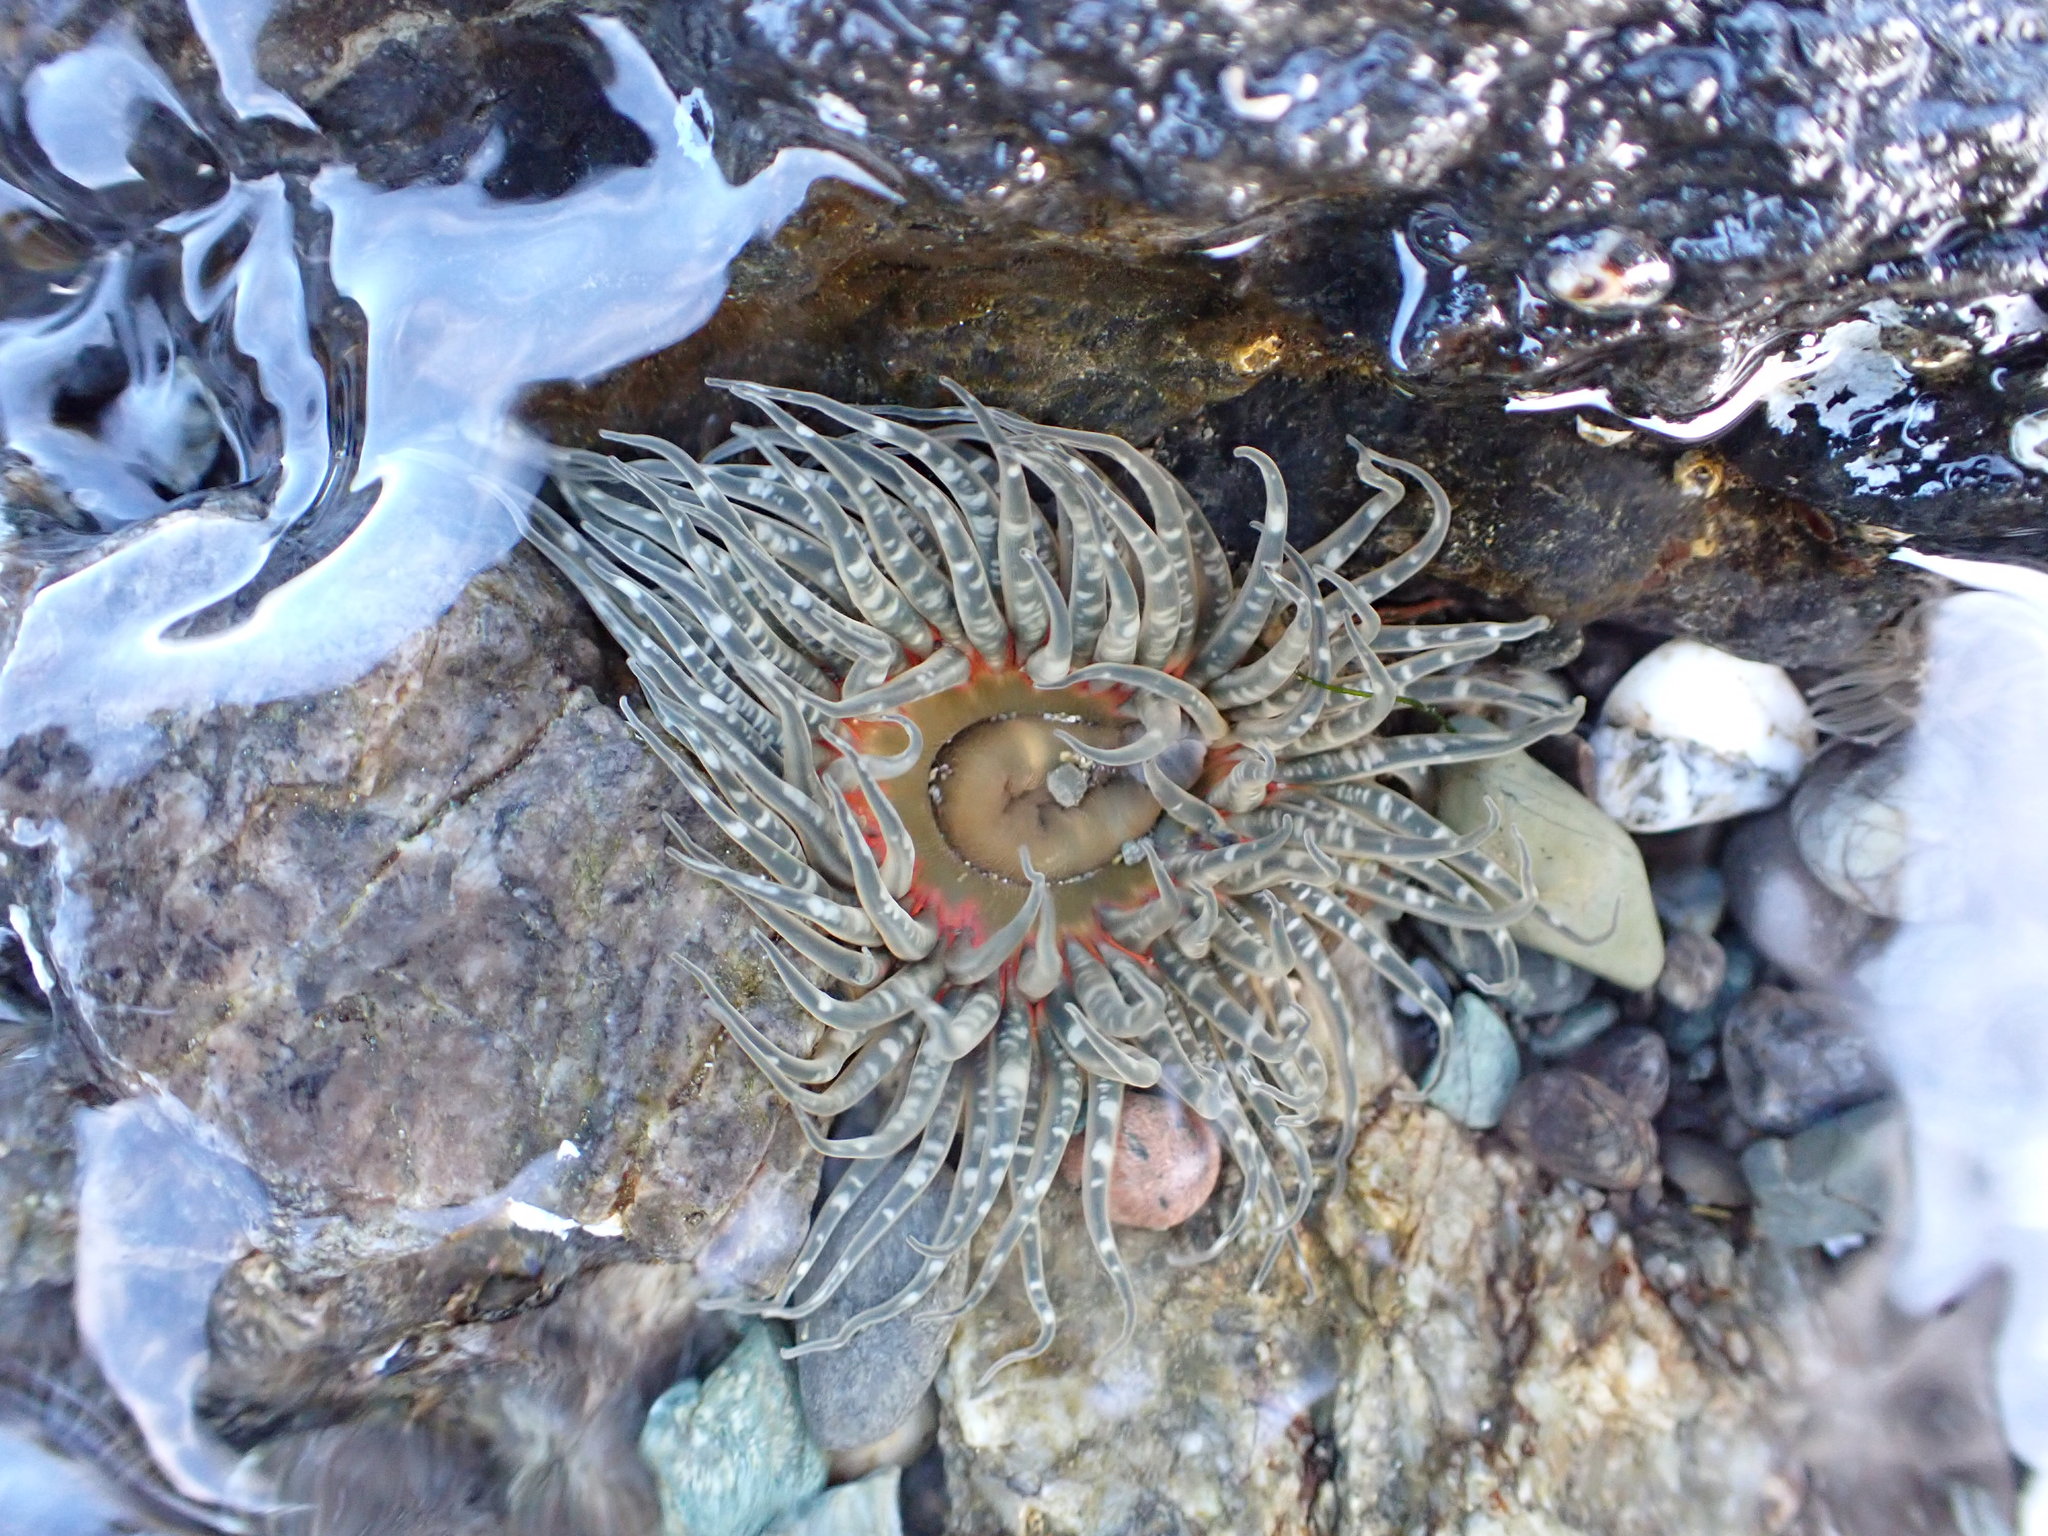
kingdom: Animalia
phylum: Cnidaria
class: Anthozoa
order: Actiniaria
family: Actiniidae
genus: Anthopleura
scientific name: Anthopleura artemisia
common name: Buried sea anemone
